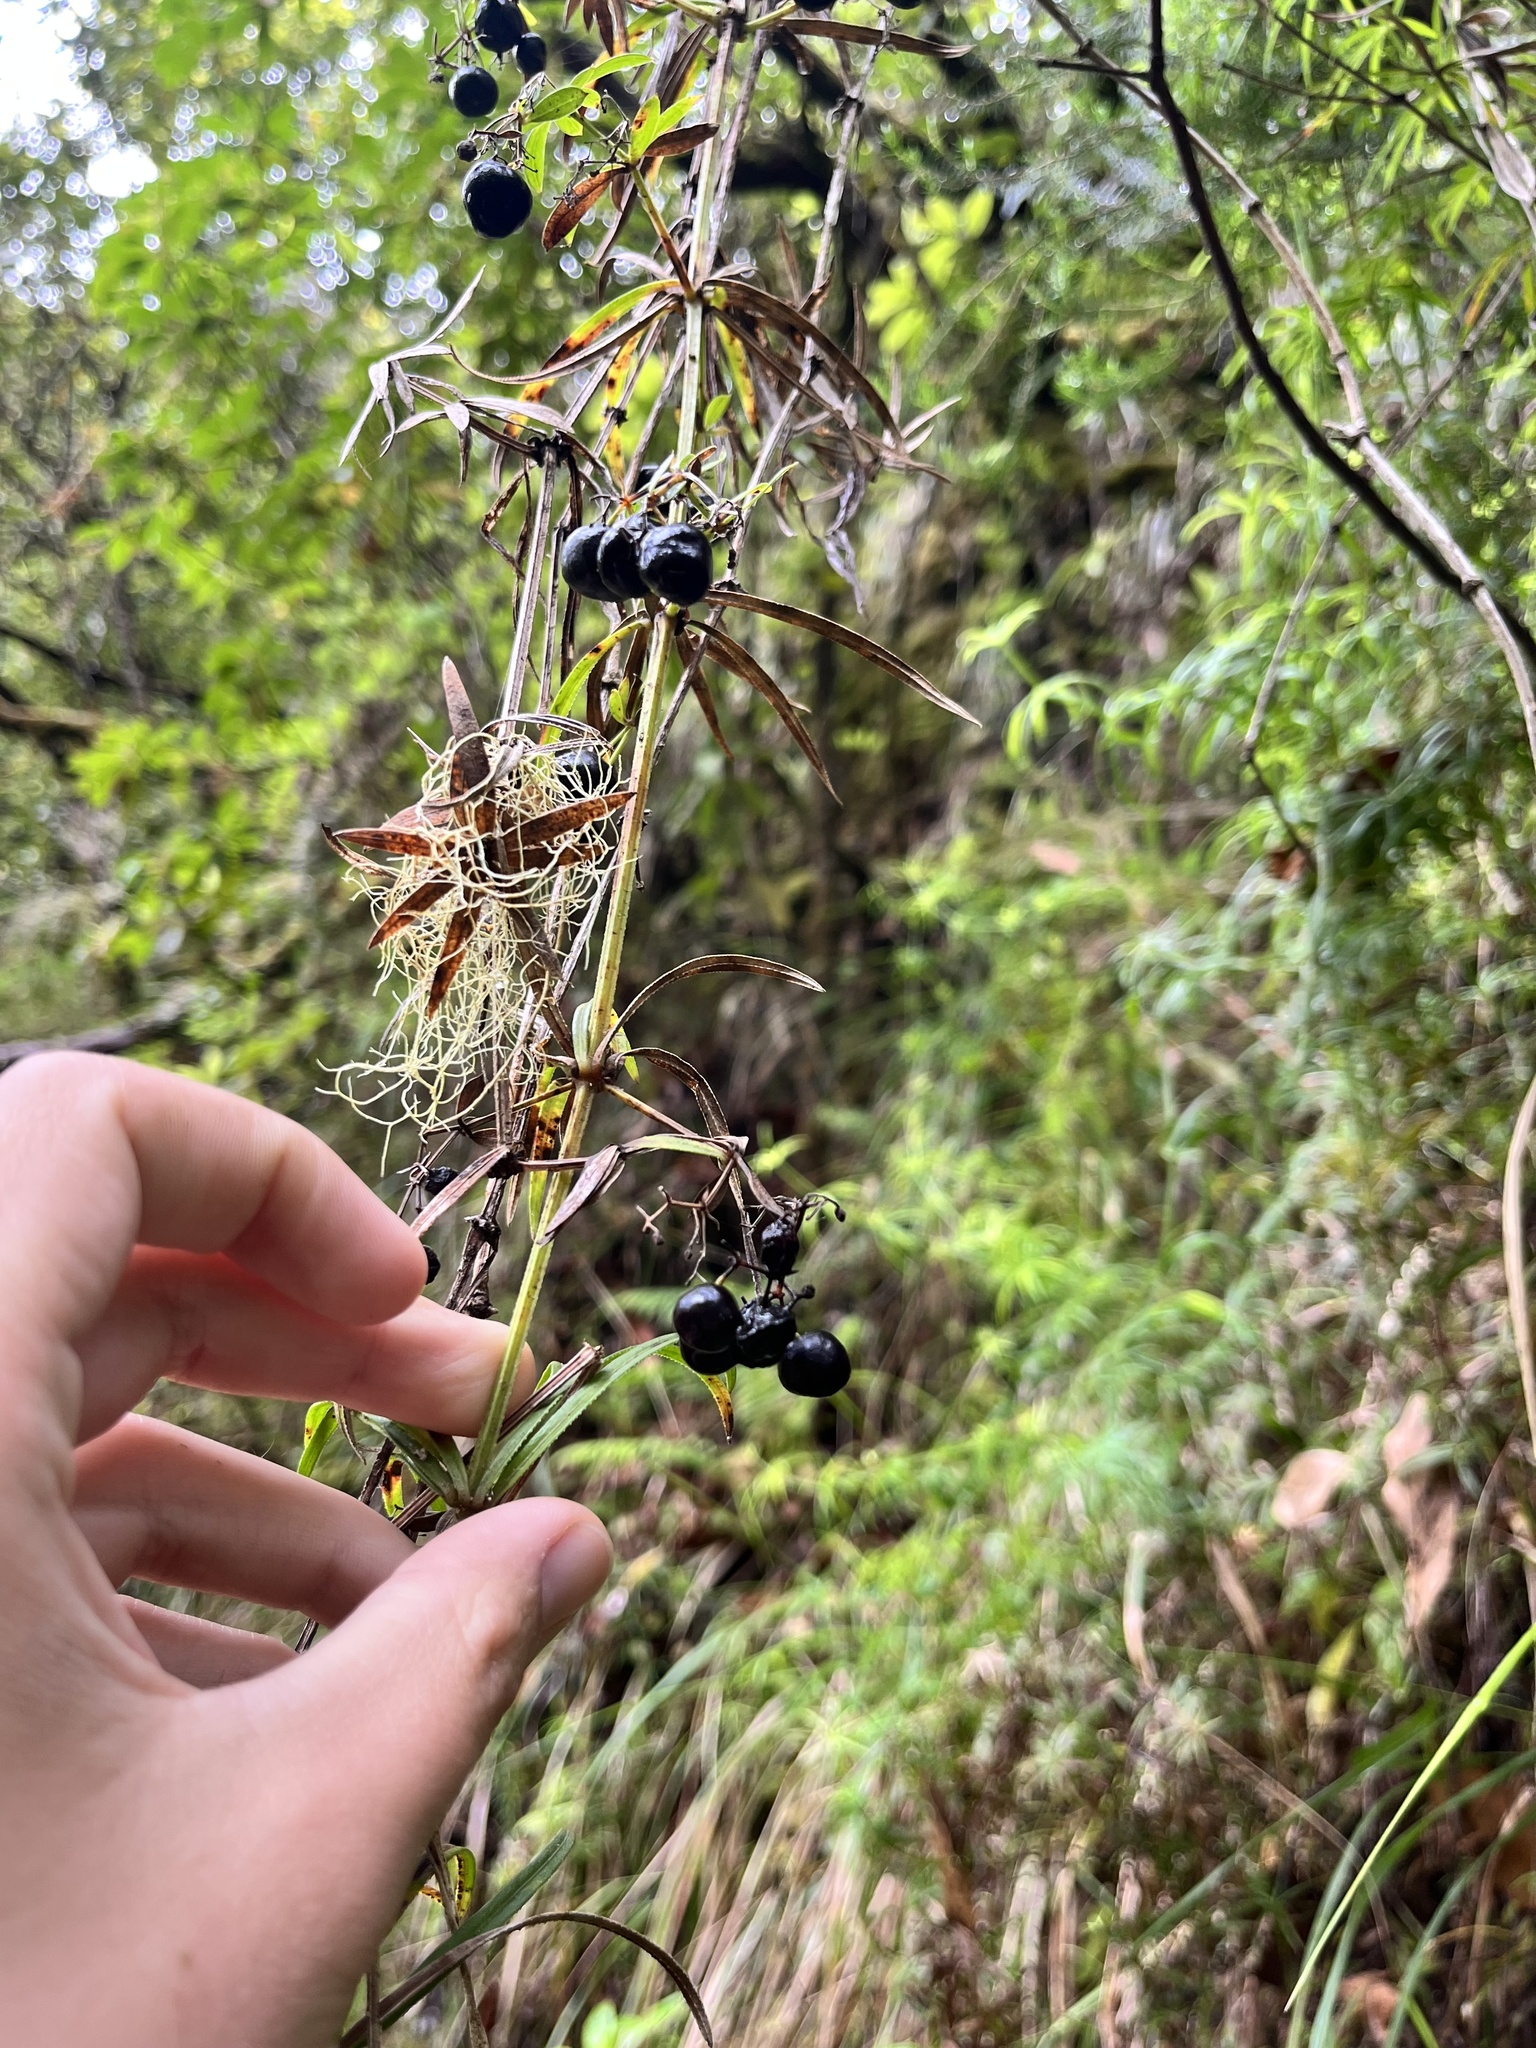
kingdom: Plantae
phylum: Tracheophyta
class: Magnoliopsida
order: Gentianales
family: Rubiaceae
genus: Rubia
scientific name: Rubia occidens
